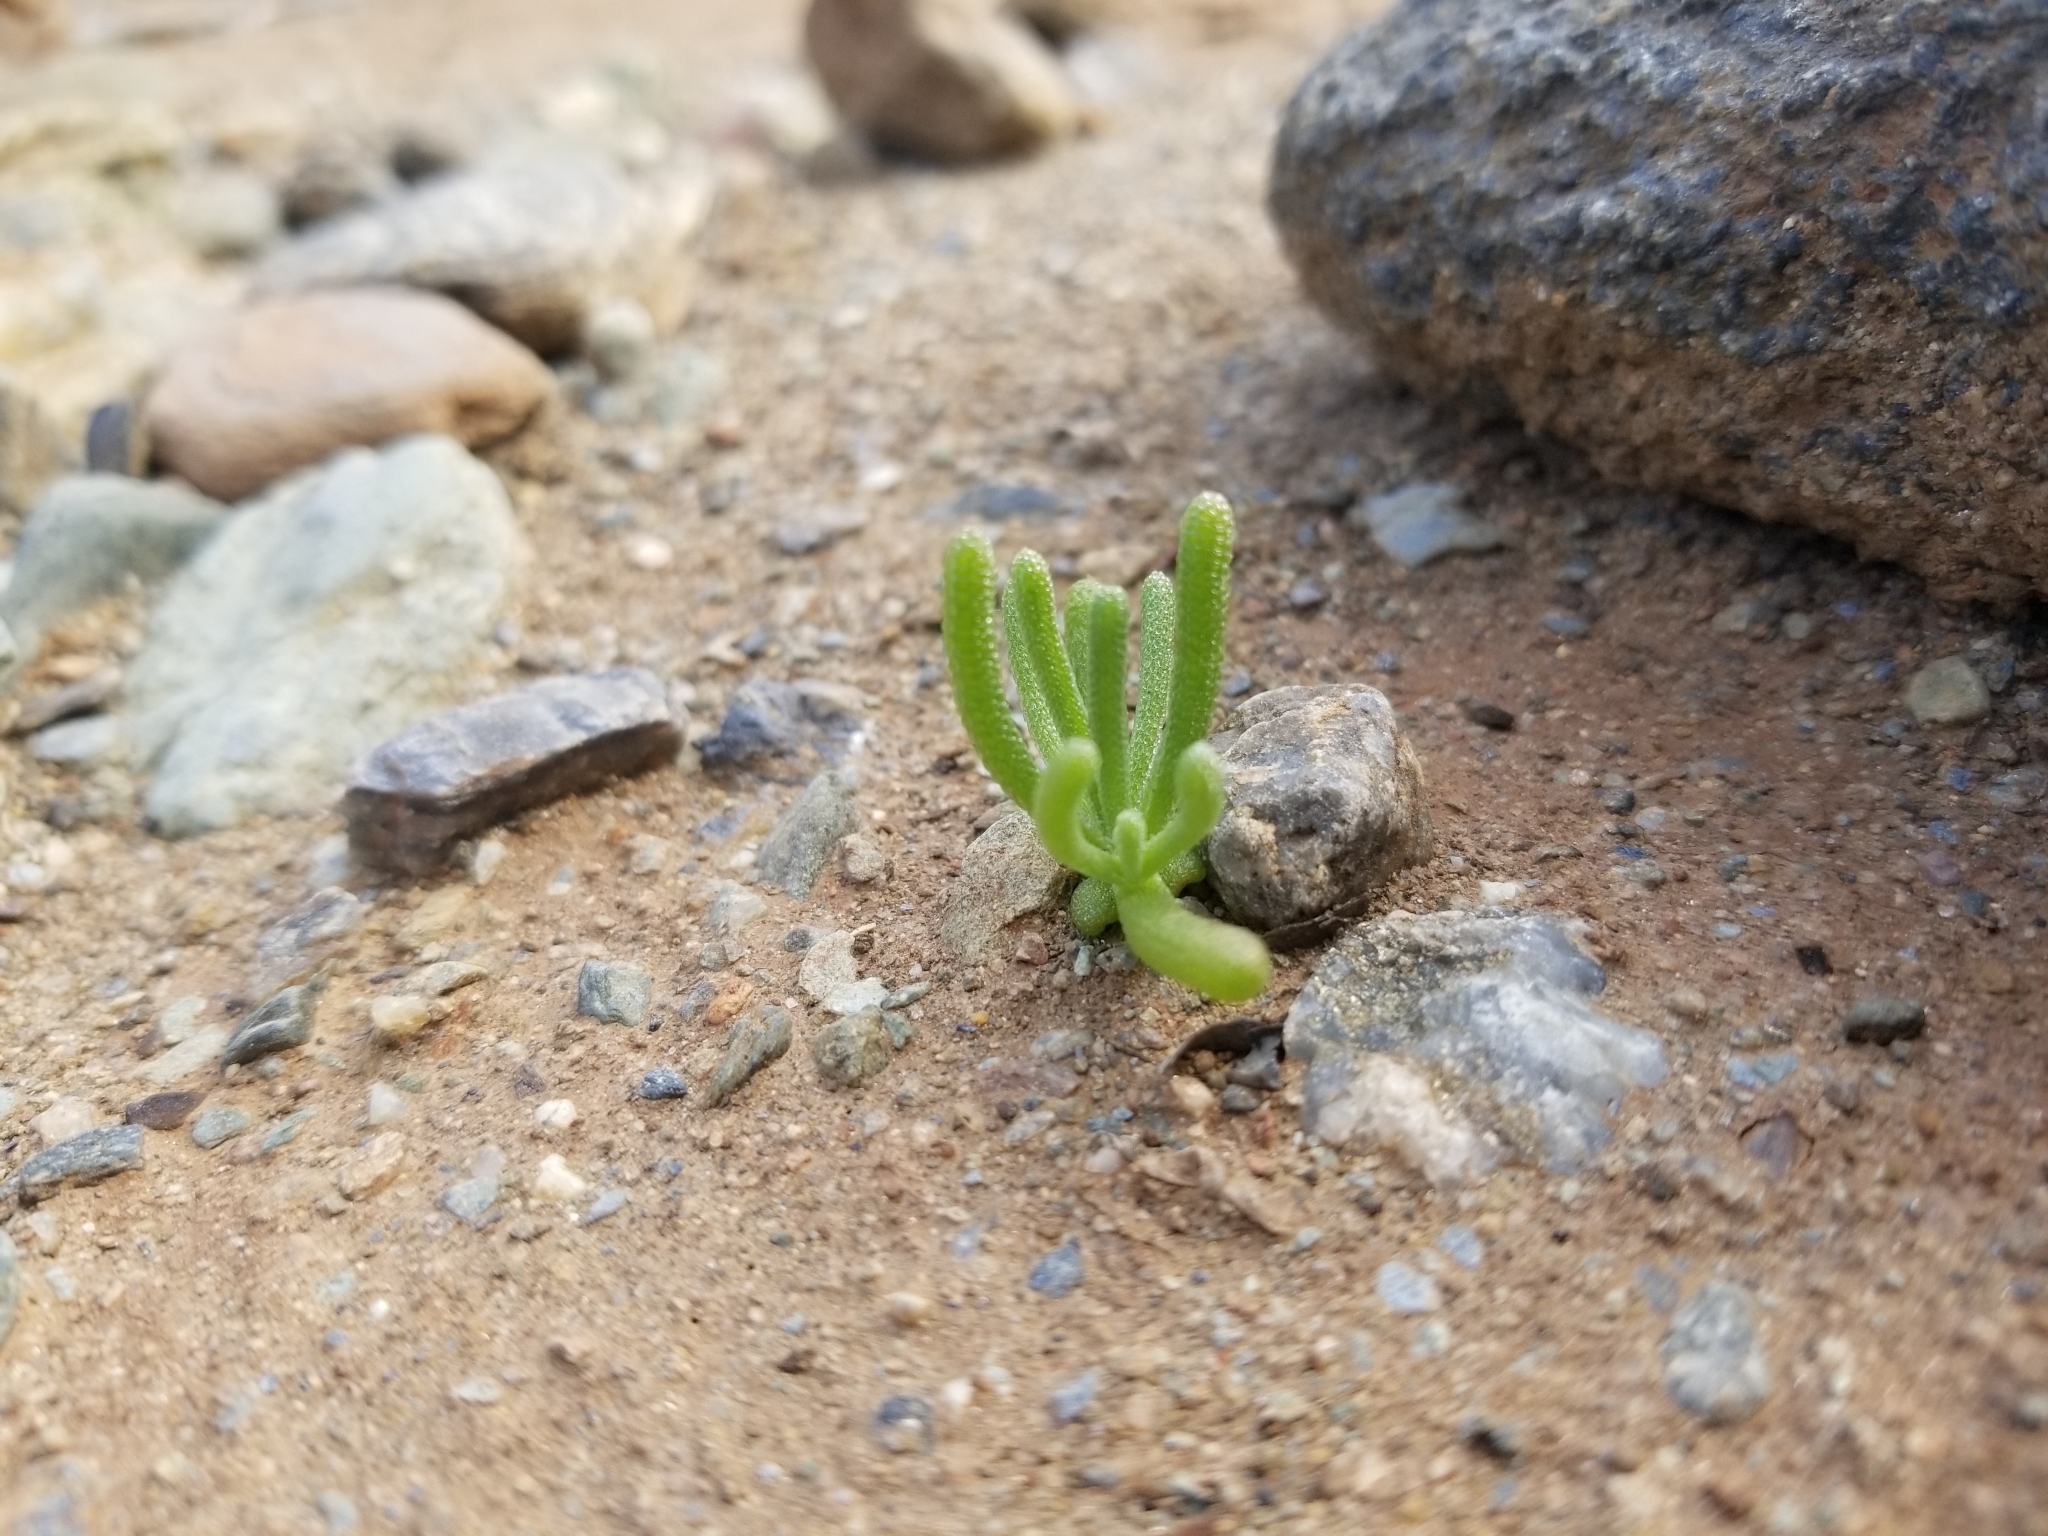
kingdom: Plantae
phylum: Tracheophyta
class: Magnoliopsida
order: Caryophyllales
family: Aizoaceae
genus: Mesembryanthemum
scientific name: Mesembryanthemum nodiflorum
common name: Slenderleaf iceplant
